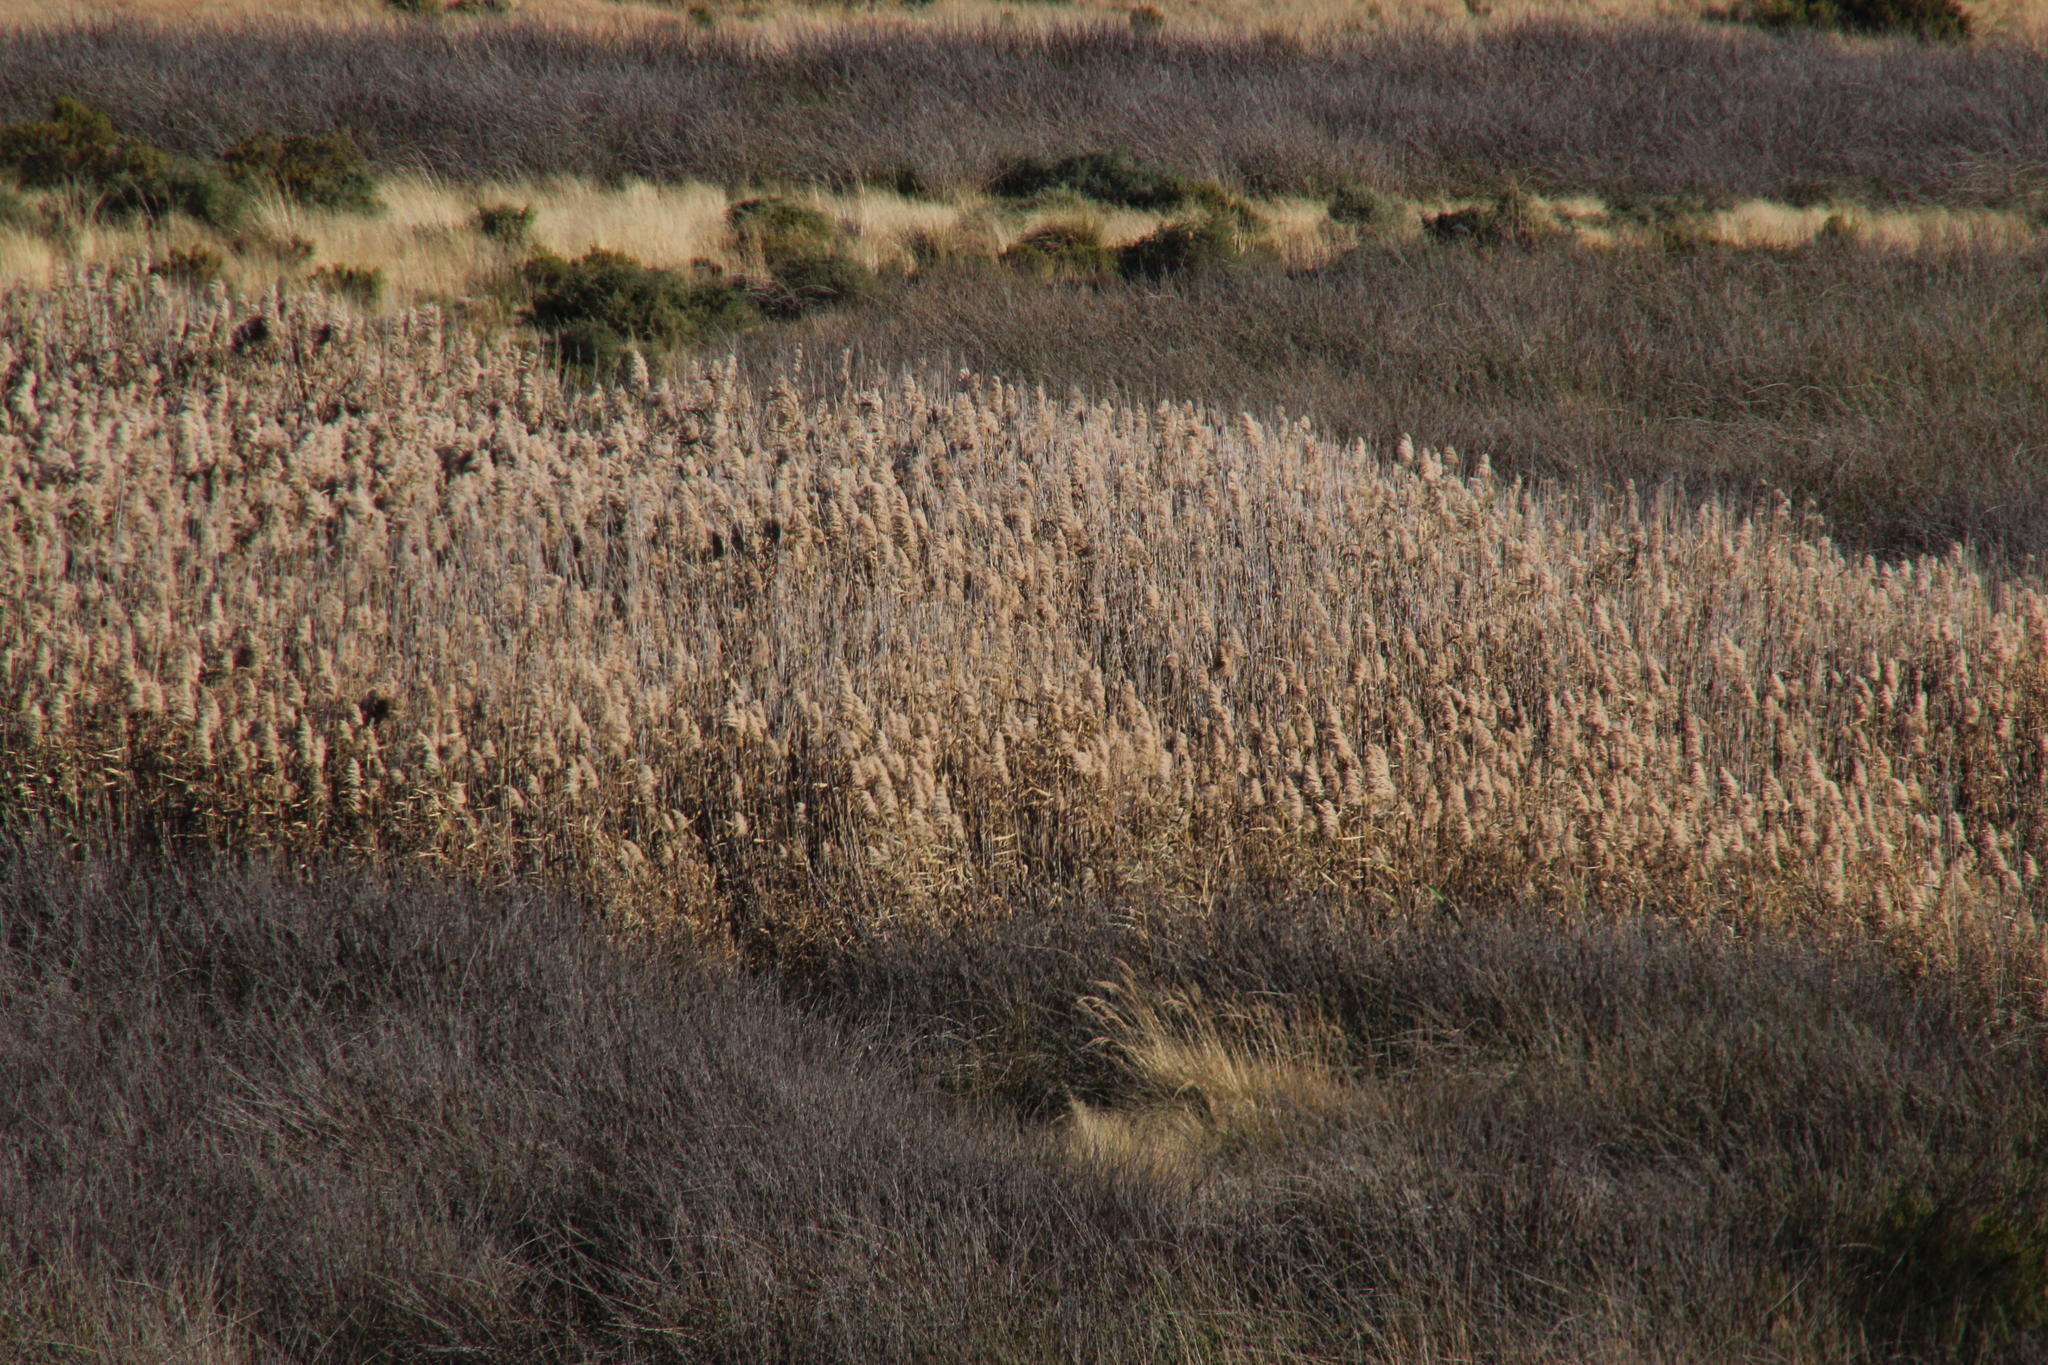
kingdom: Plantae
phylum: Tracheophyta
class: Liliopsida
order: Poales
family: Poaceae
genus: Phragmites
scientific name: Phragmites australis
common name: Common reed
